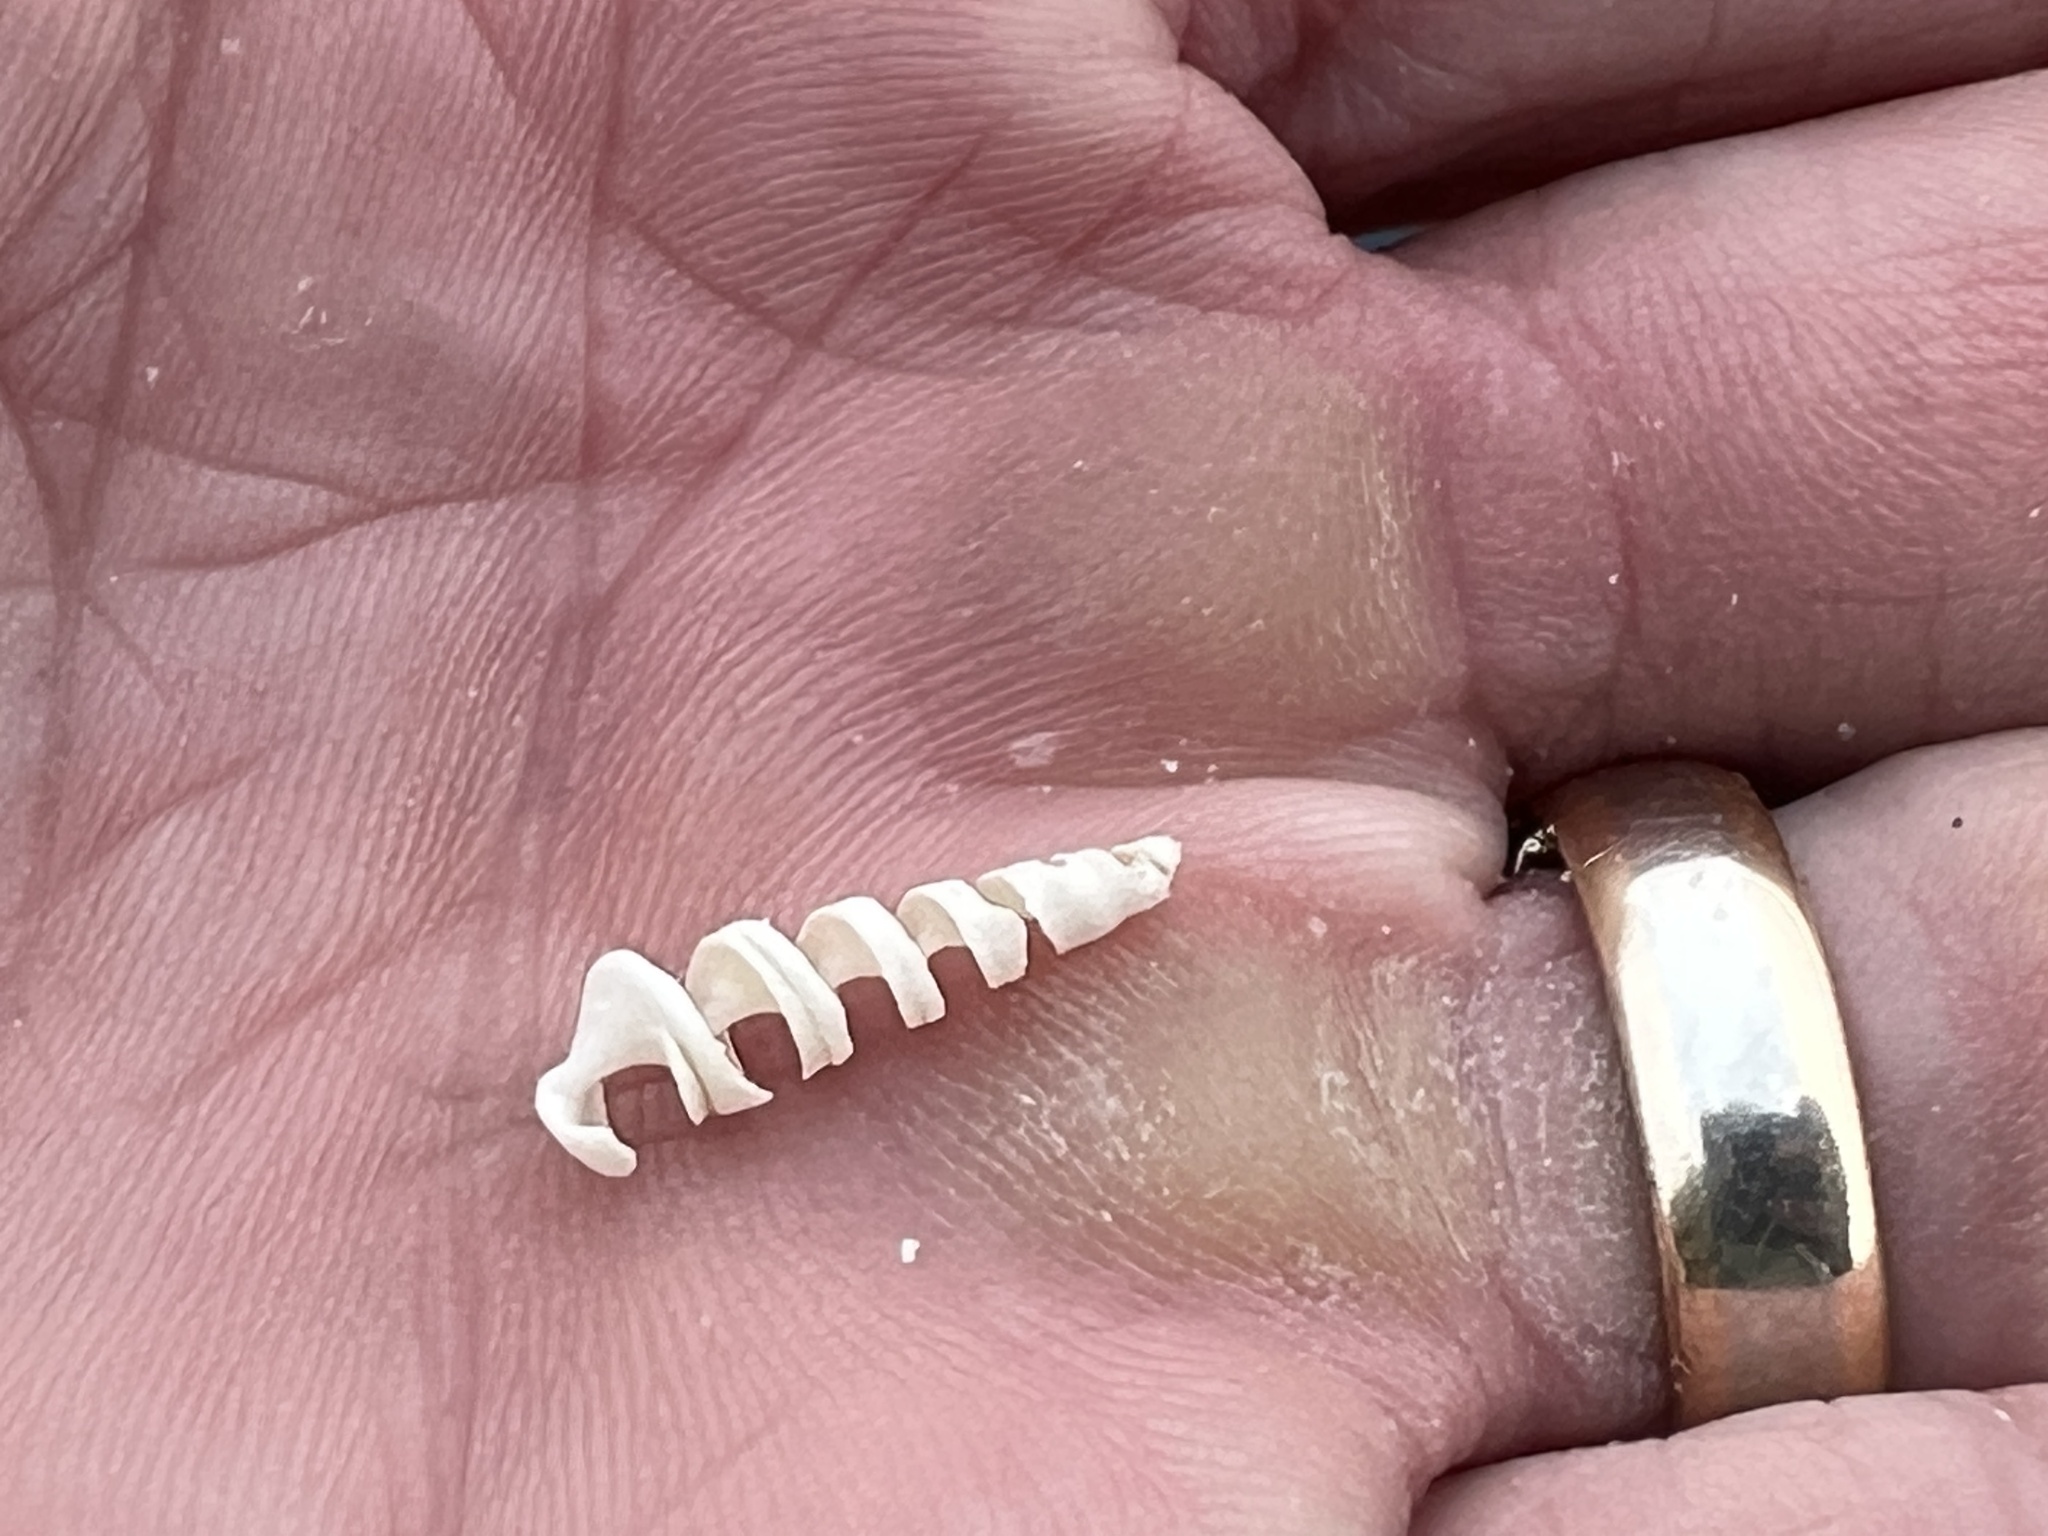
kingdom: Animalia
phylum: Mollusca
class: Gastropoda
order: Neogastropoda
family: Terebridae
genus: Neoterebra
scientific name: Neoterebra dislocata
